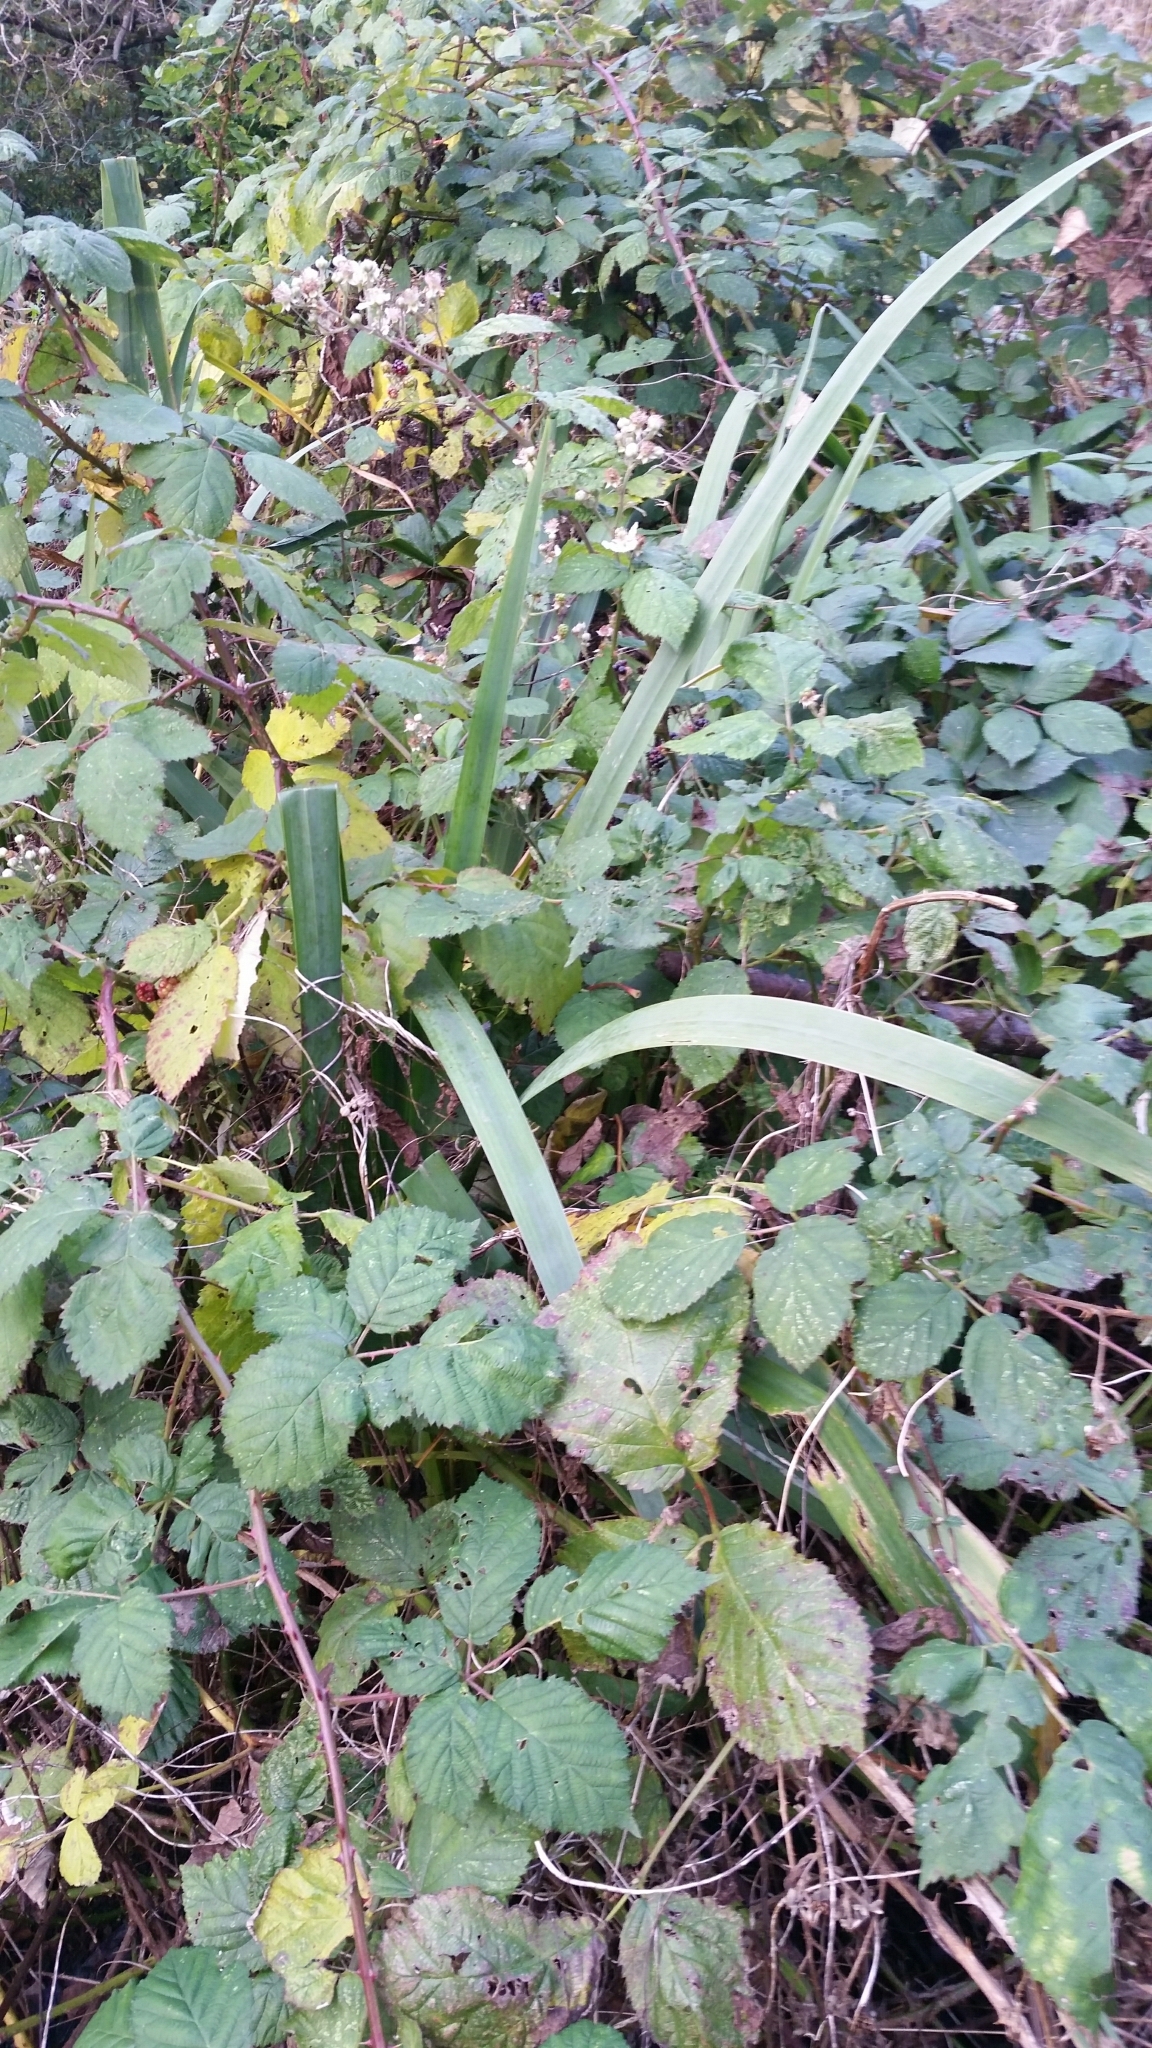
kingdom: Plantae
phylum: Tracheophyta
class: Liliopsida
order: Asparagales
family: Iridaceae
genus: Iris
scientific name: Iris pseudacorus
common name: Yellow flag
